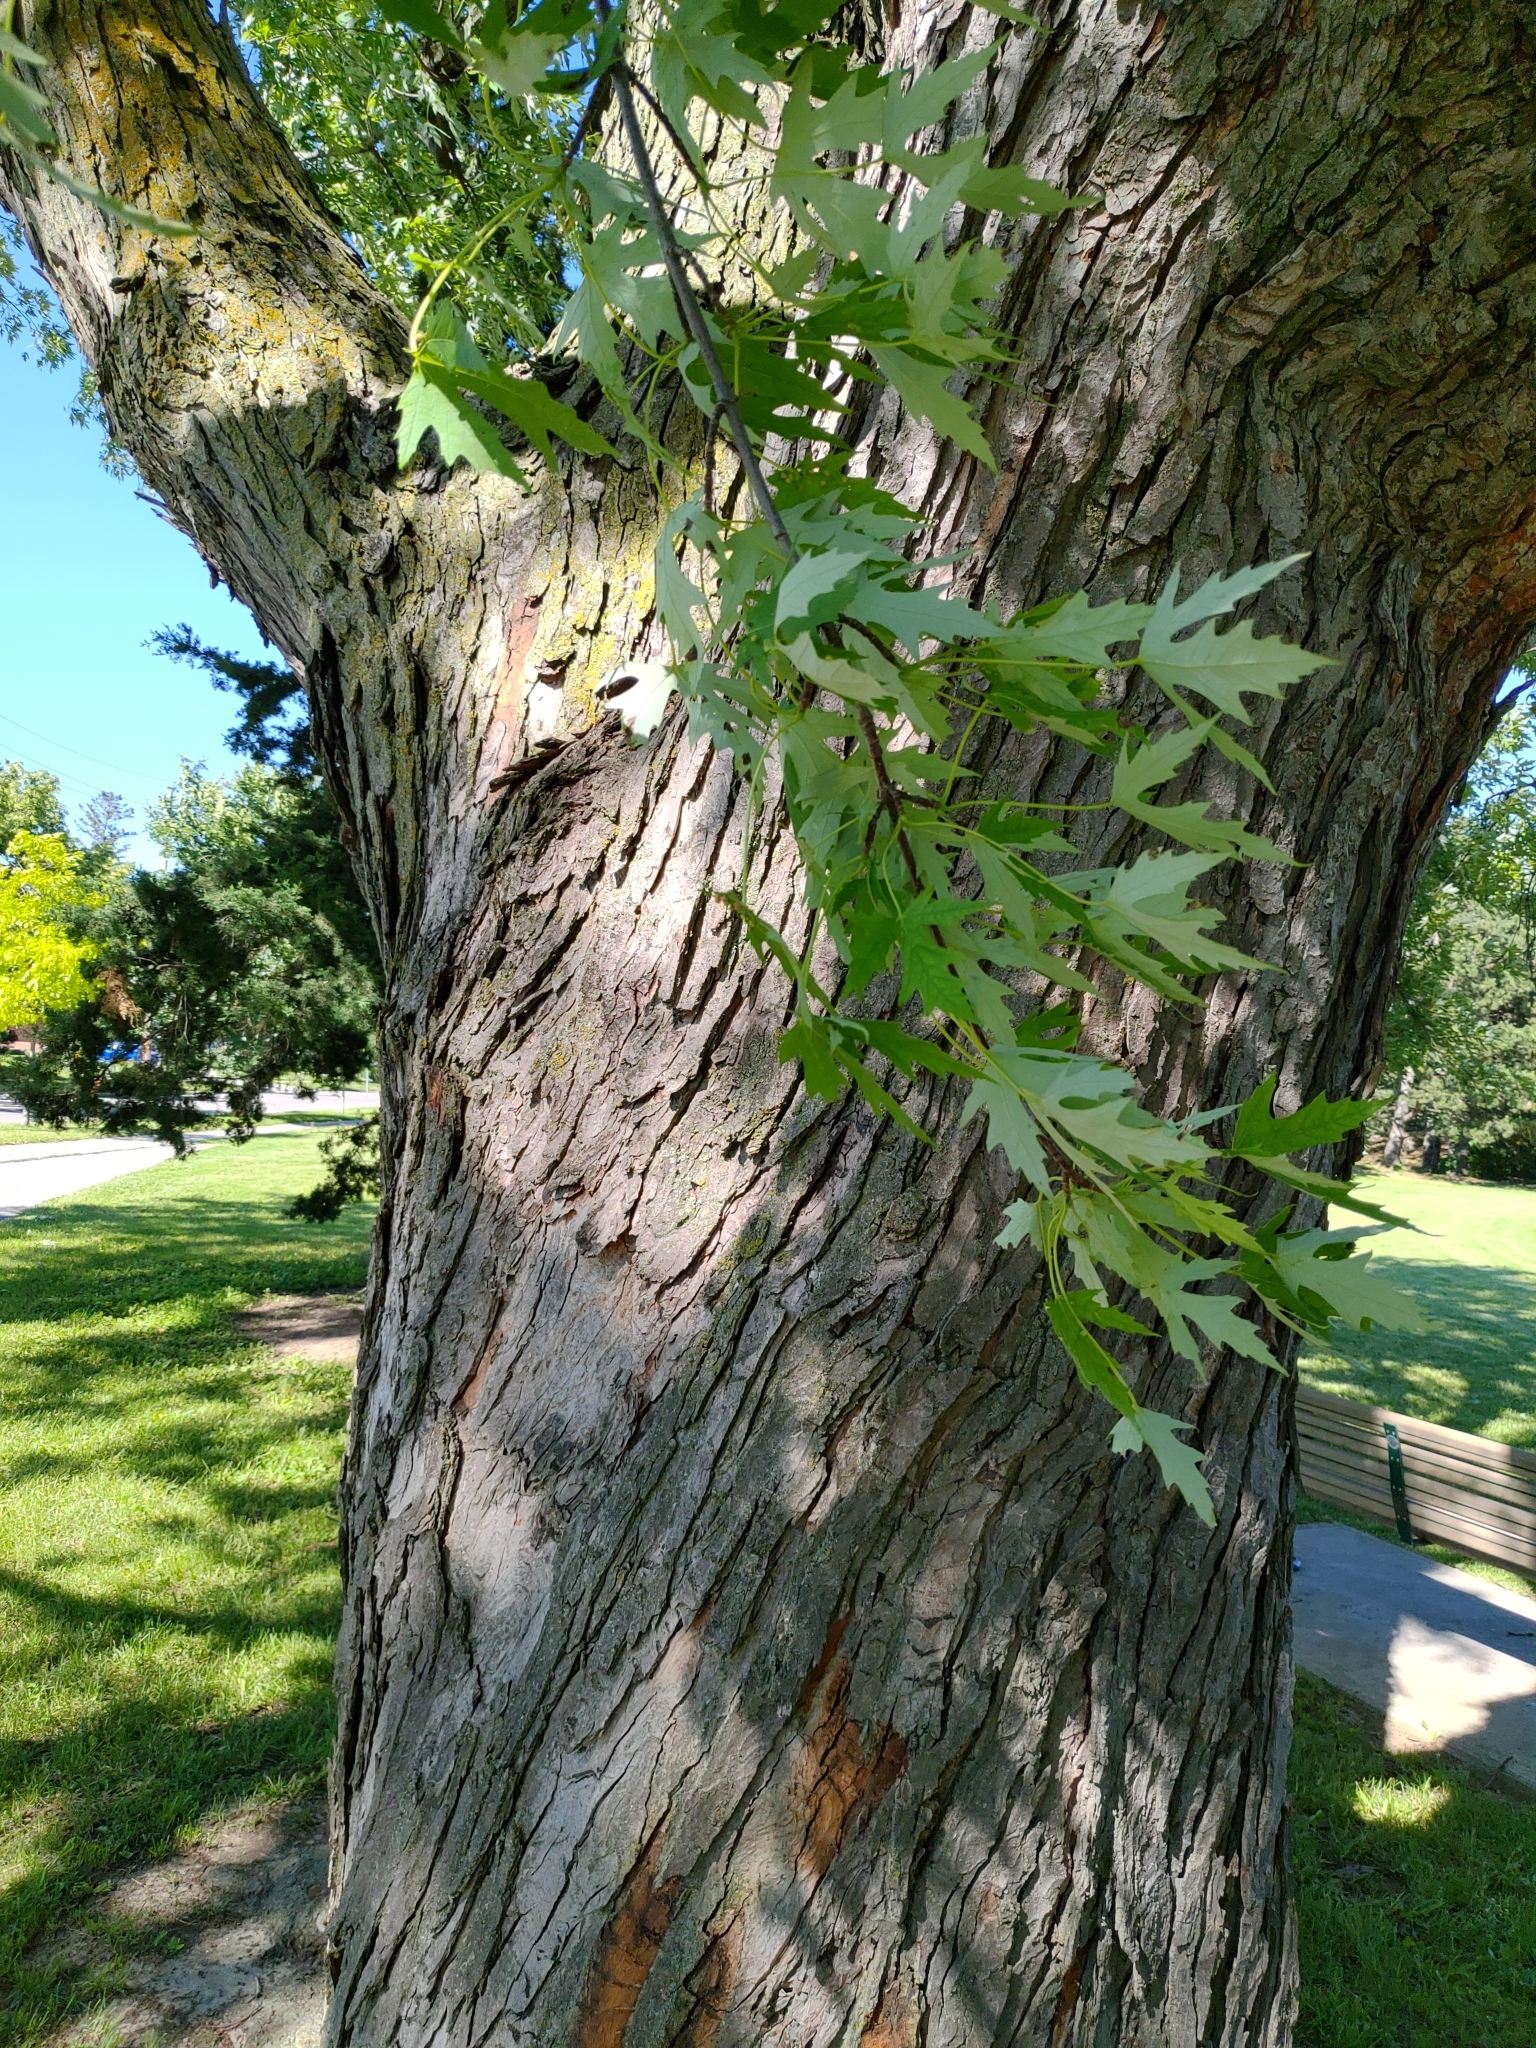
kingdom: Plantae
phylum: Tracheophyta
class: Magnoliopsida
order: Sapindales
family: Sapindaceae
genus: Acer
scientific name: Acer saccharinum
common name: Silver maple
